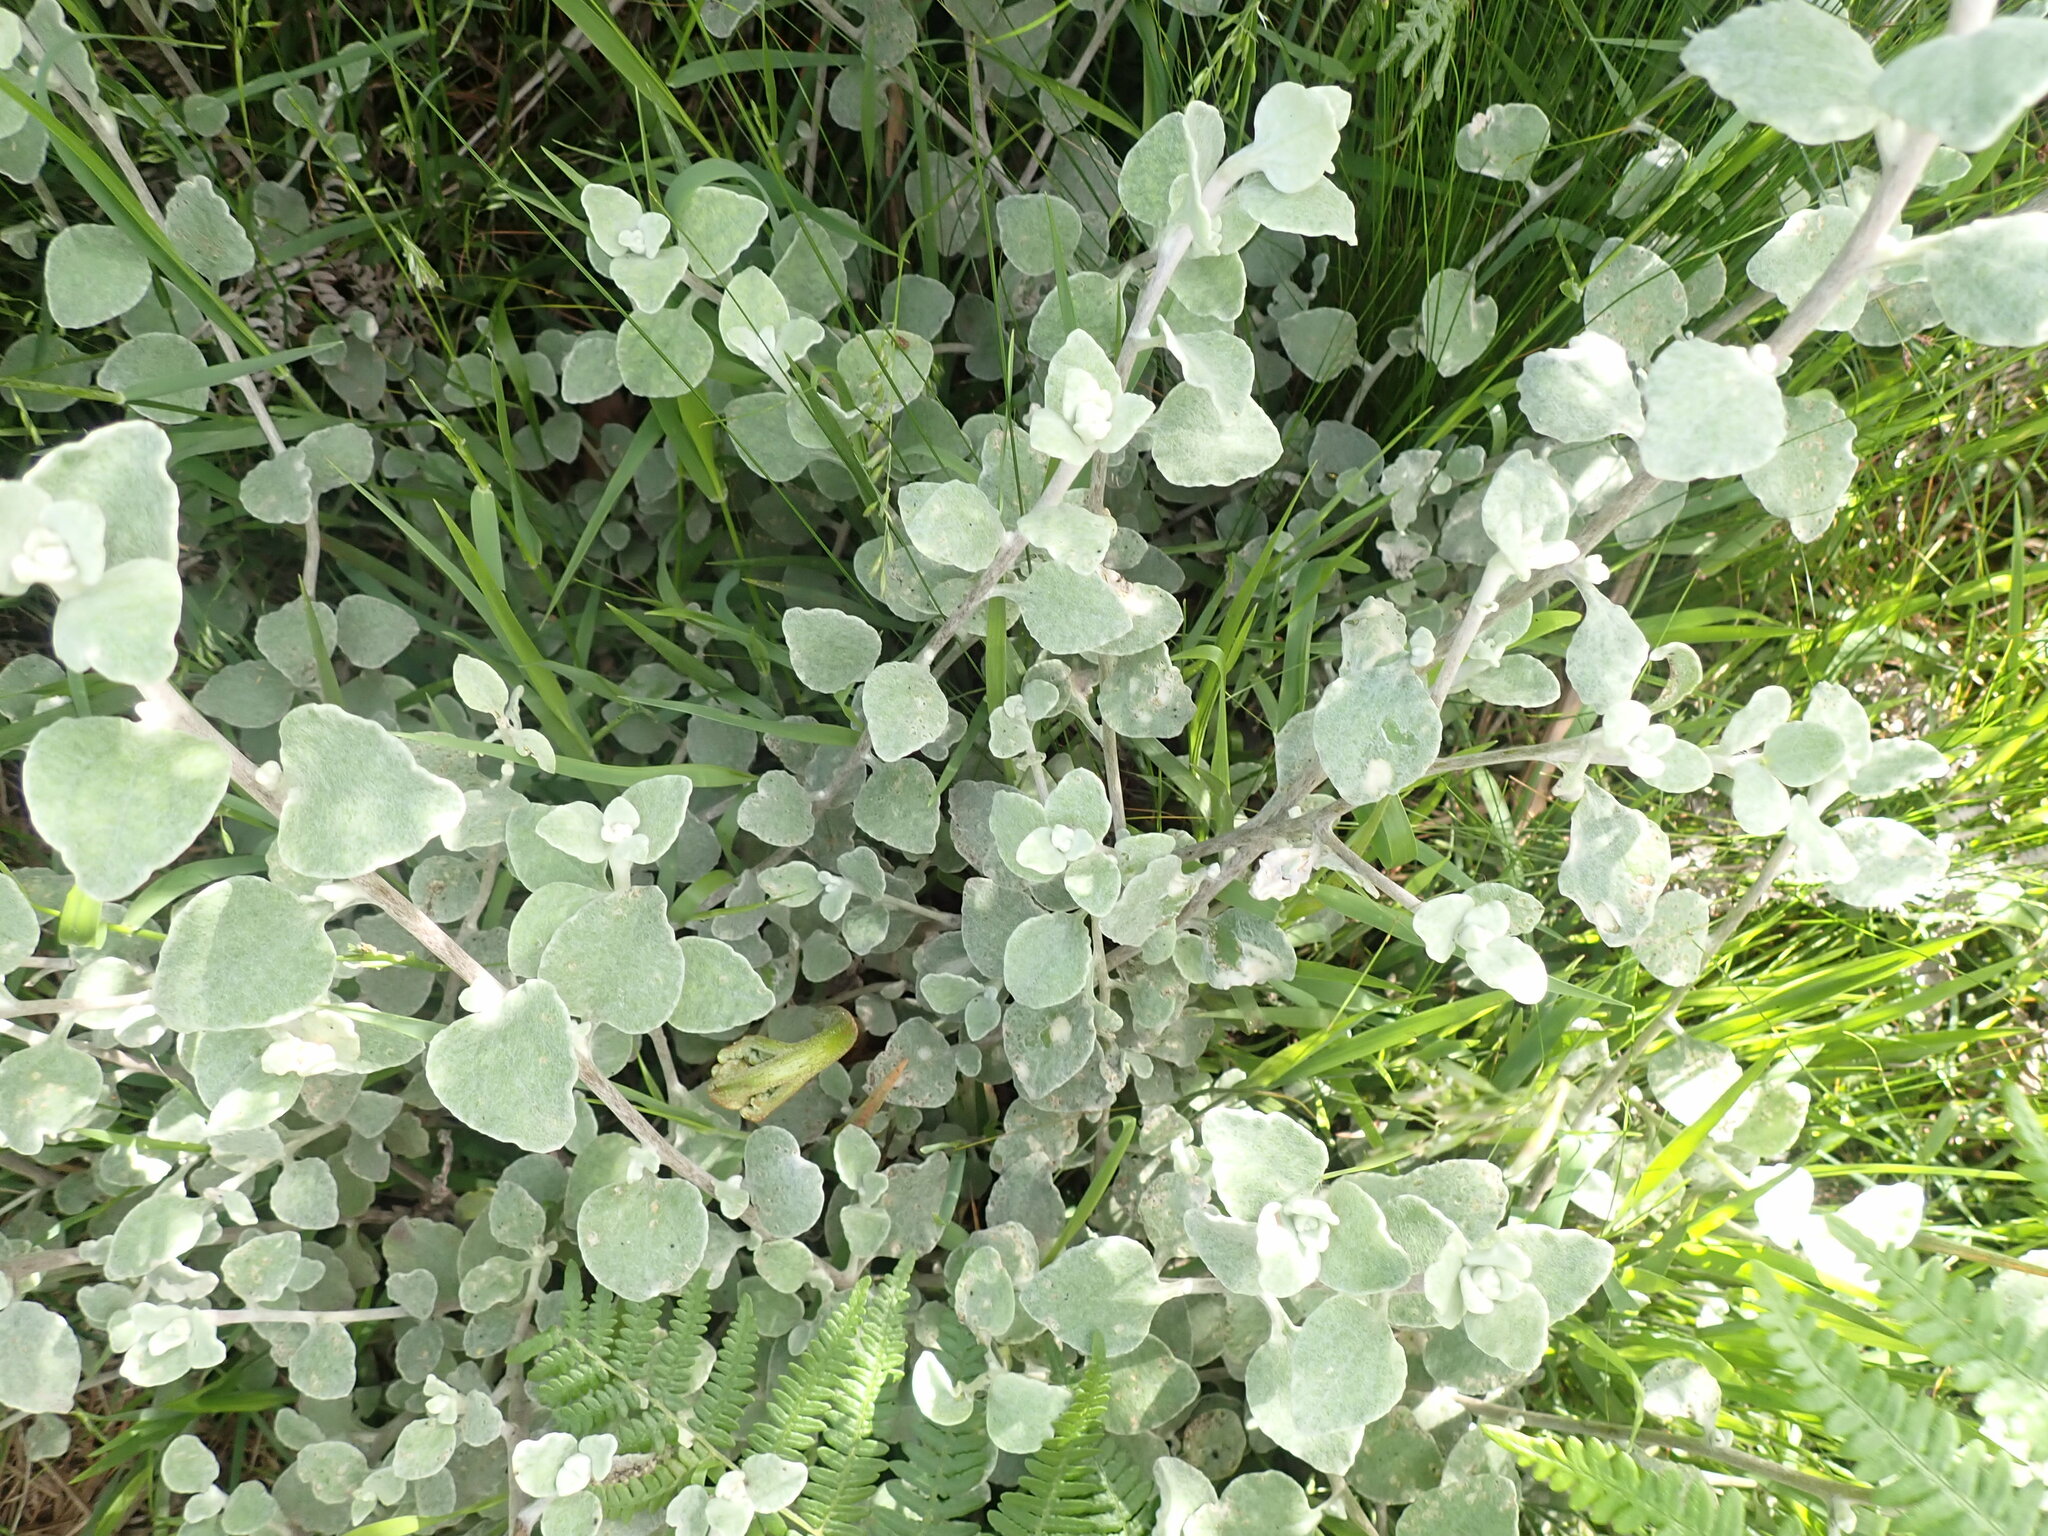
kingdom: Plantae
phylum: Tracheophyta
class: Magnoliopsida
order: Asterales
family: Asteraceae
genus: Helichrysum
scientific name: Helichrysum petiolare
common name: Licorice-plant
